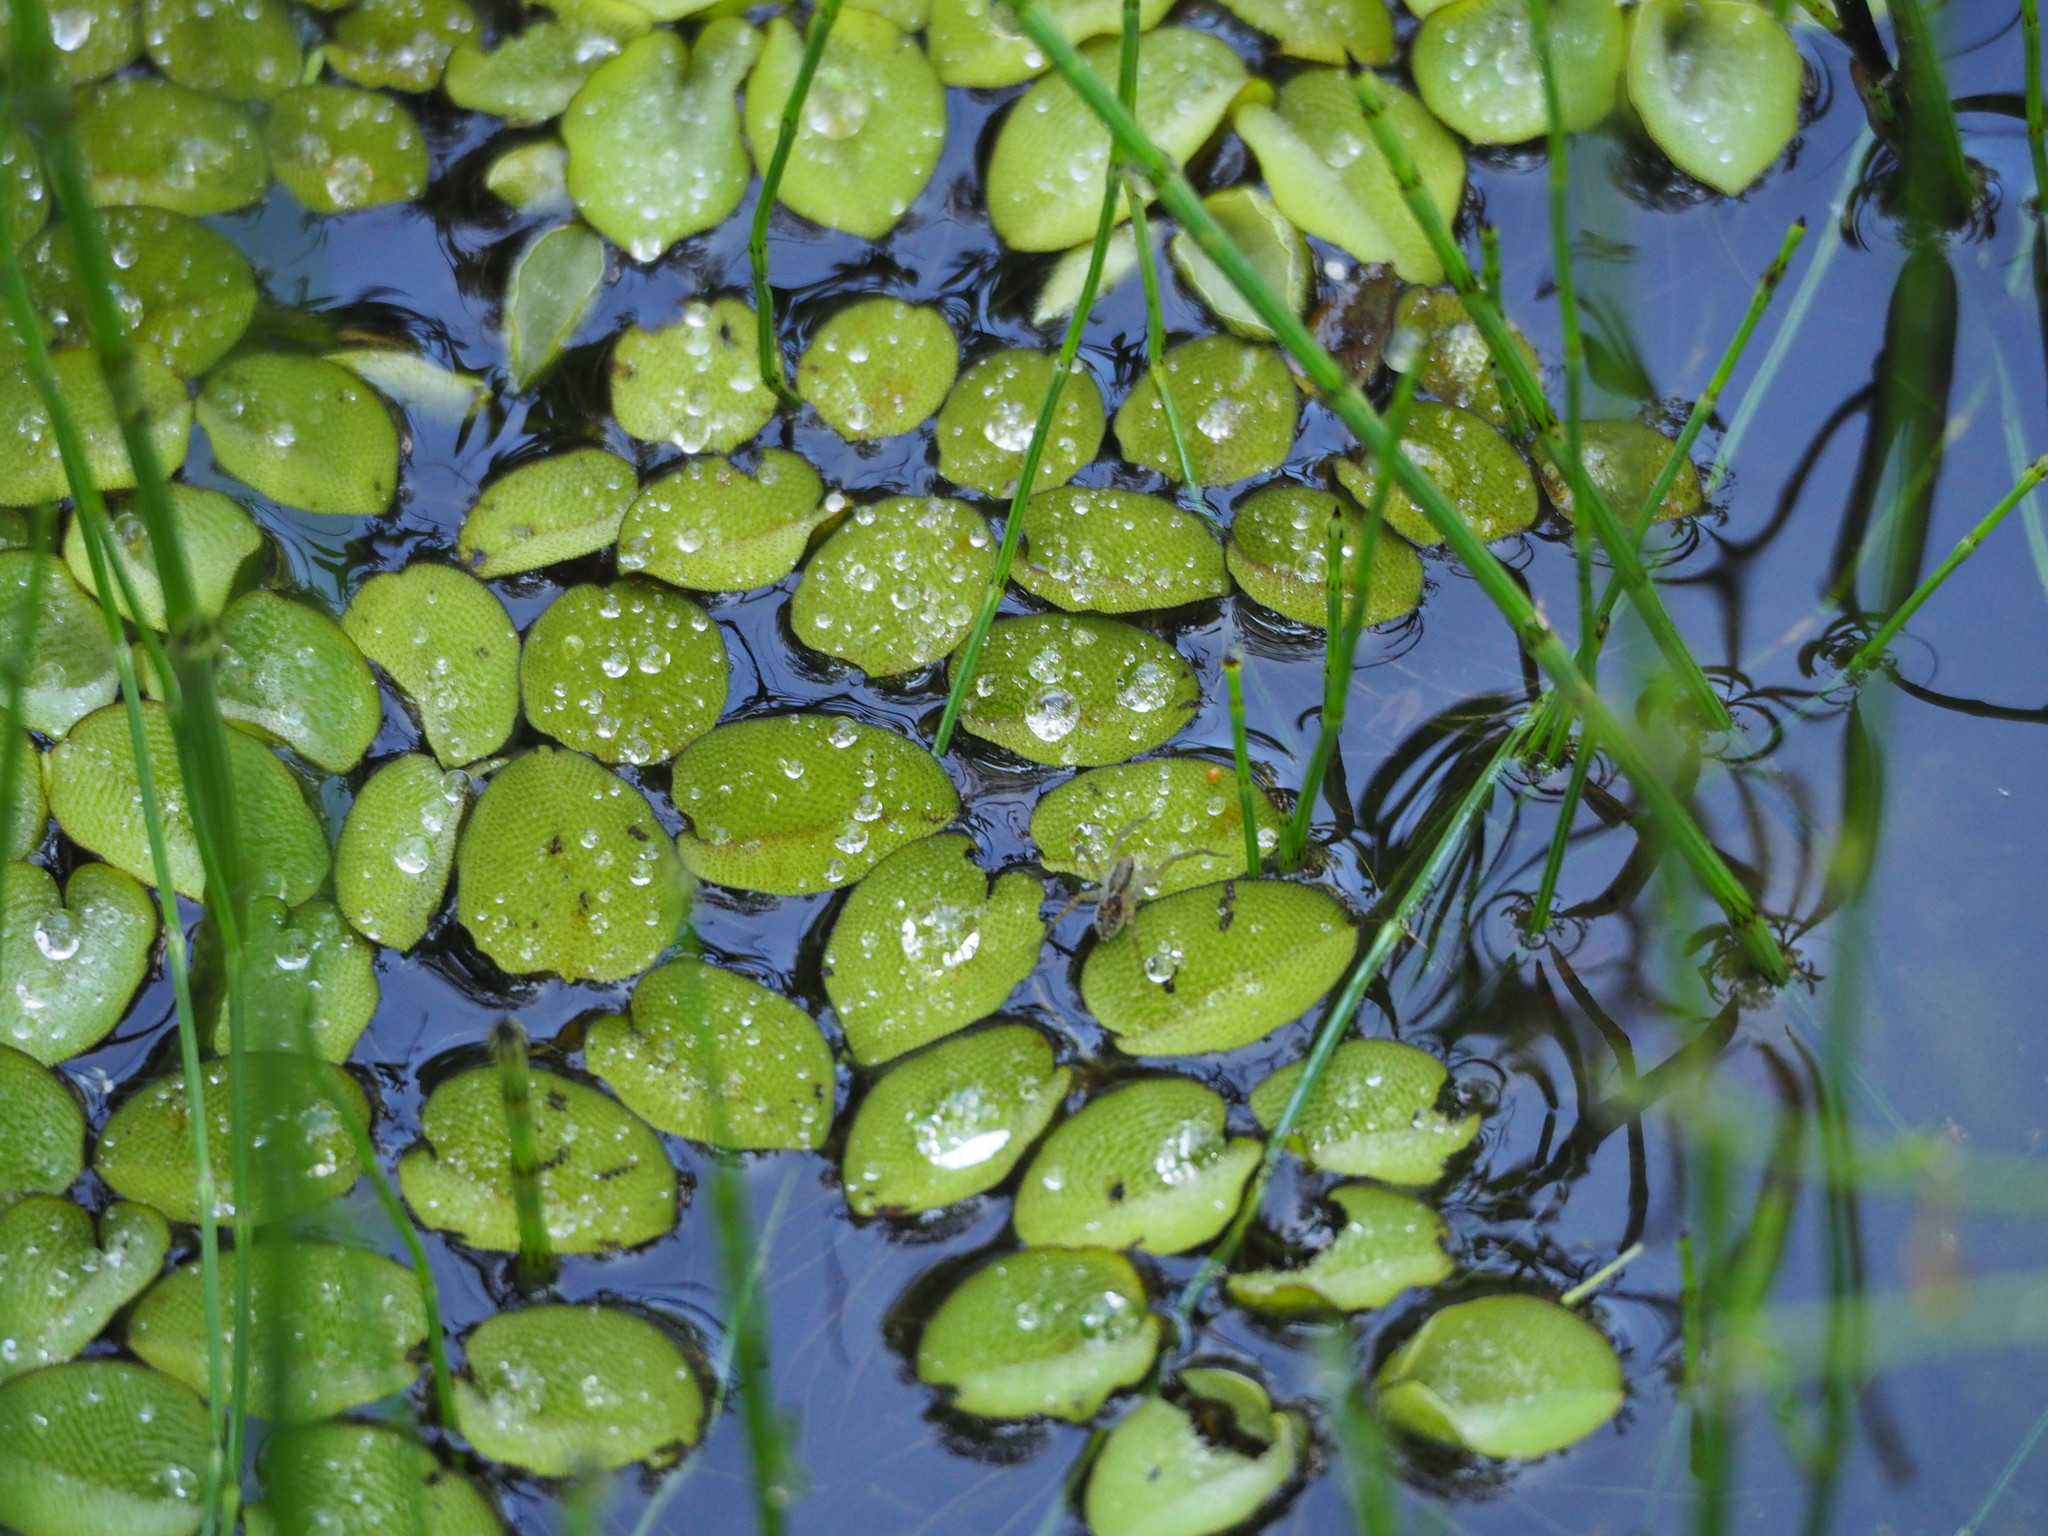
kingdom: Plantae
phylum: Tracheophyta
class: Polypodiopsida
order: Salviniales
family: Salviniaceae
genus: Salvinia
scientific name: Salvinia molesta
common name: Kariba weed
